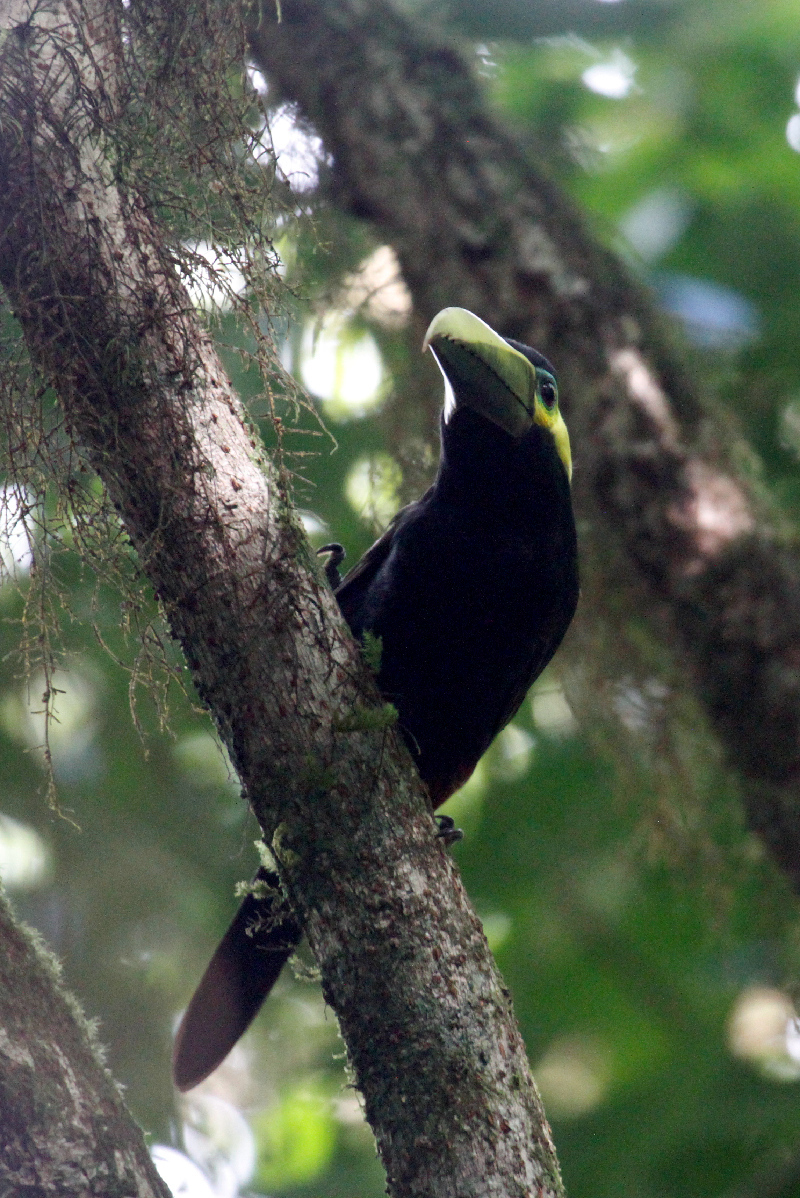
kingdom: Animalia
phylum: Chordata
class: Aves
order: Piciformes
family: Ramphastidae
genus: Selenidera
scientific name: Selenidera spectabilis
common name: Yellow-eared toucanet
